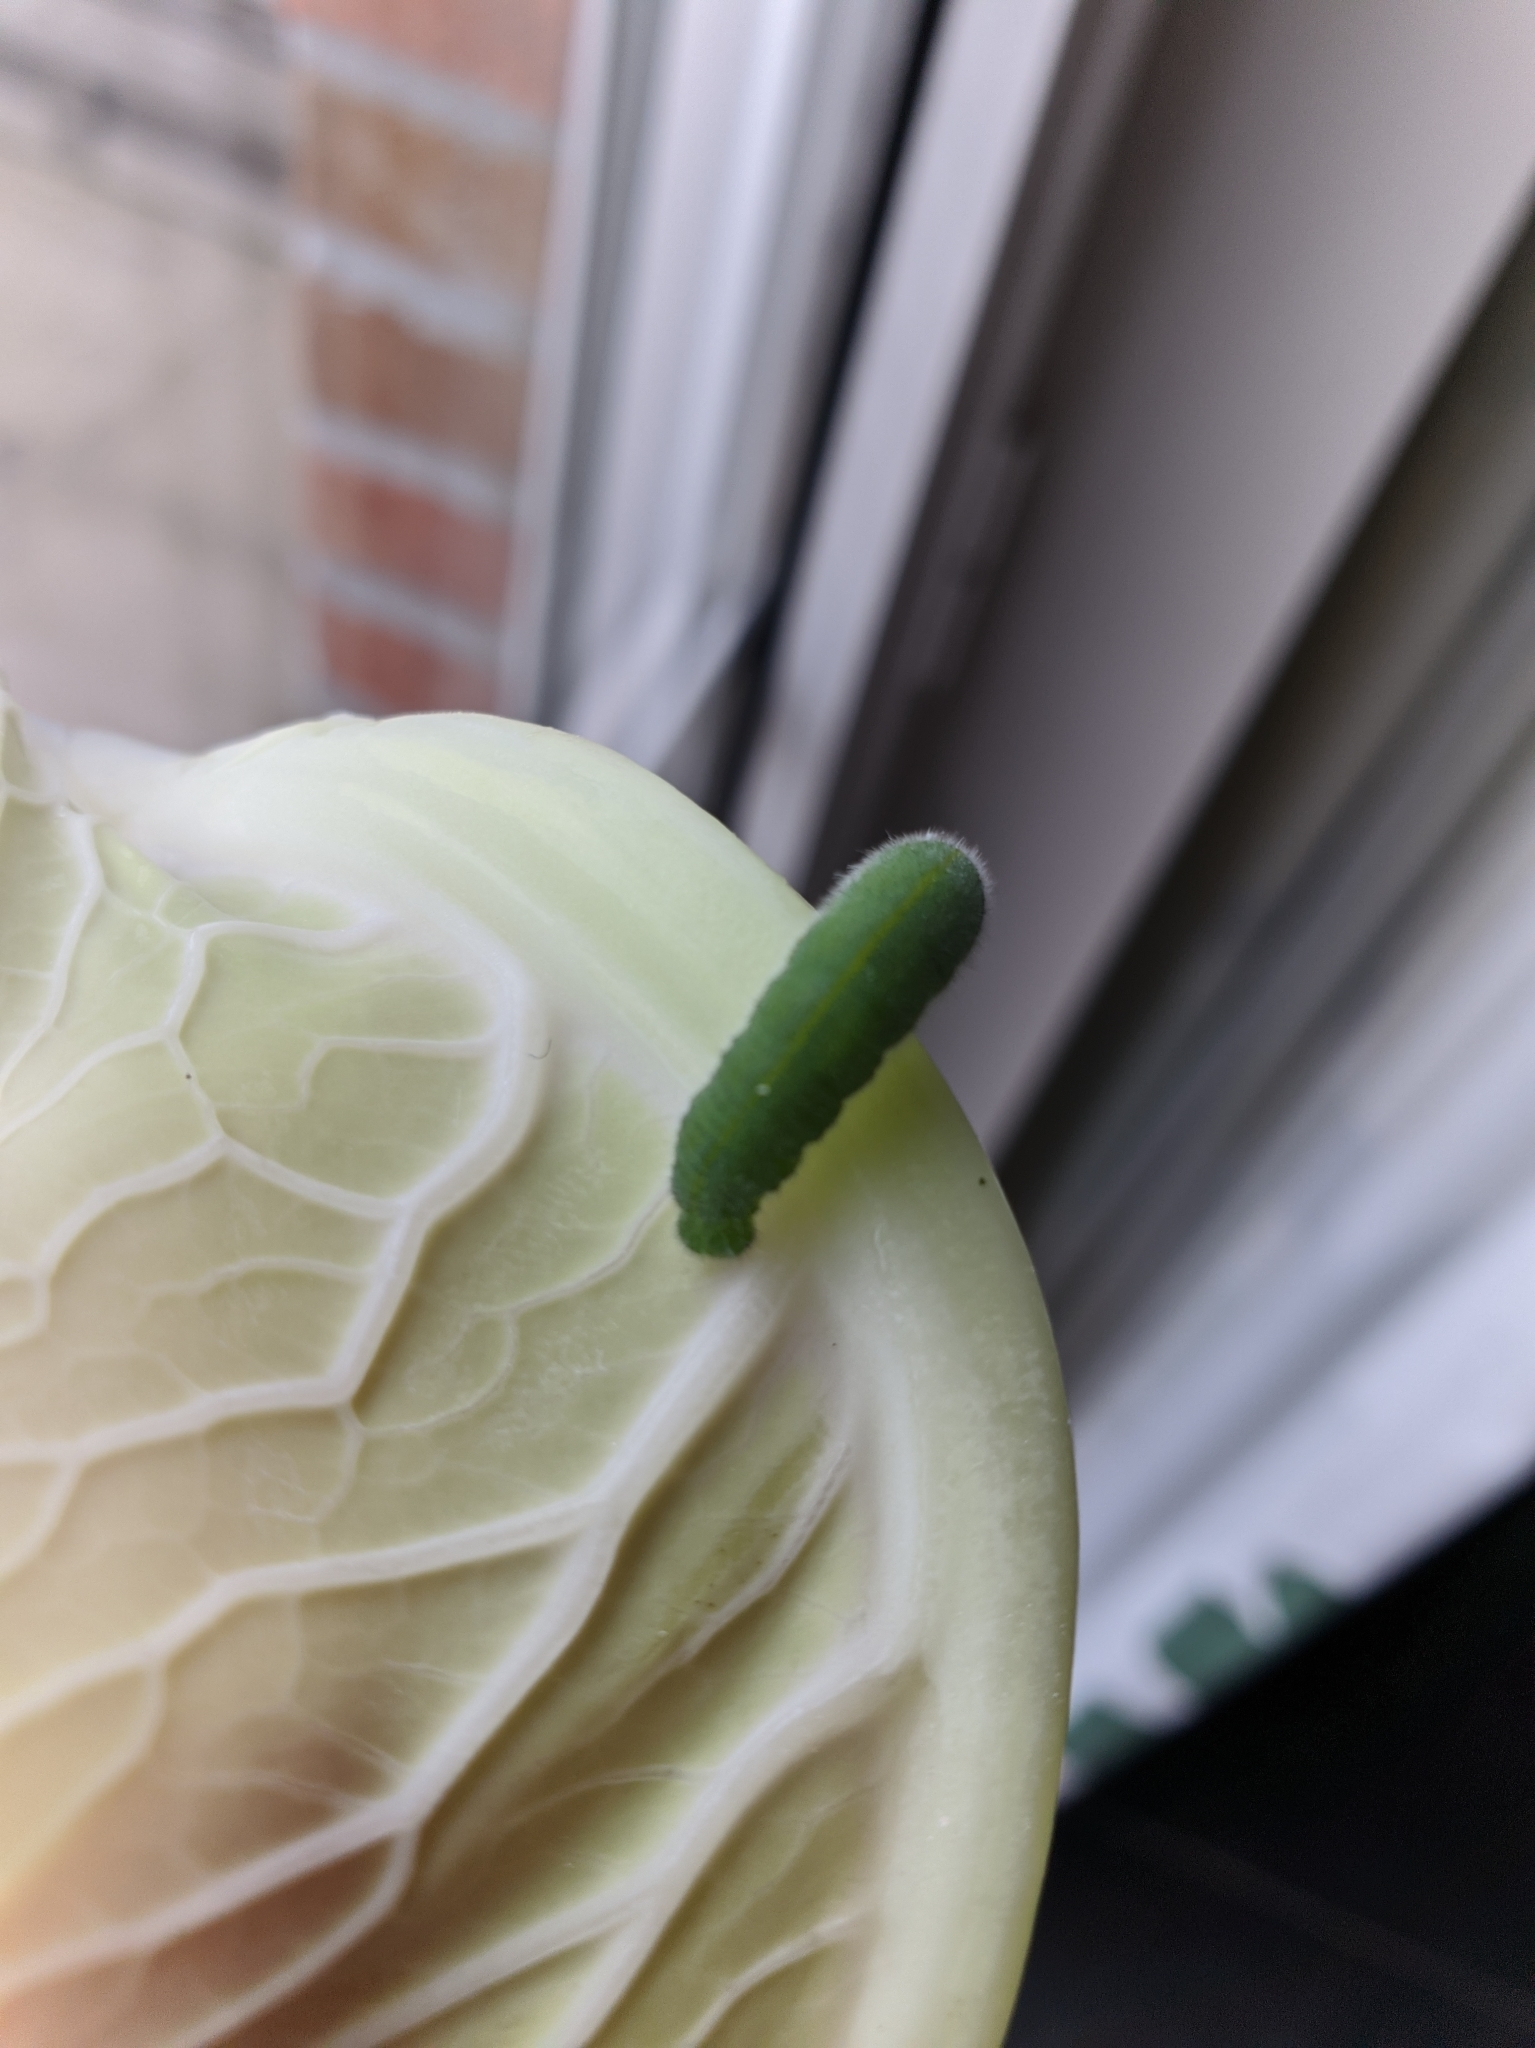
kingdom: Animalia
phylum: Arthropoda
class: Insecta
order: Lepidoptera
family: Pieridae
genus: Pieris
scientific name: Pieris rapae
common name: Small white
